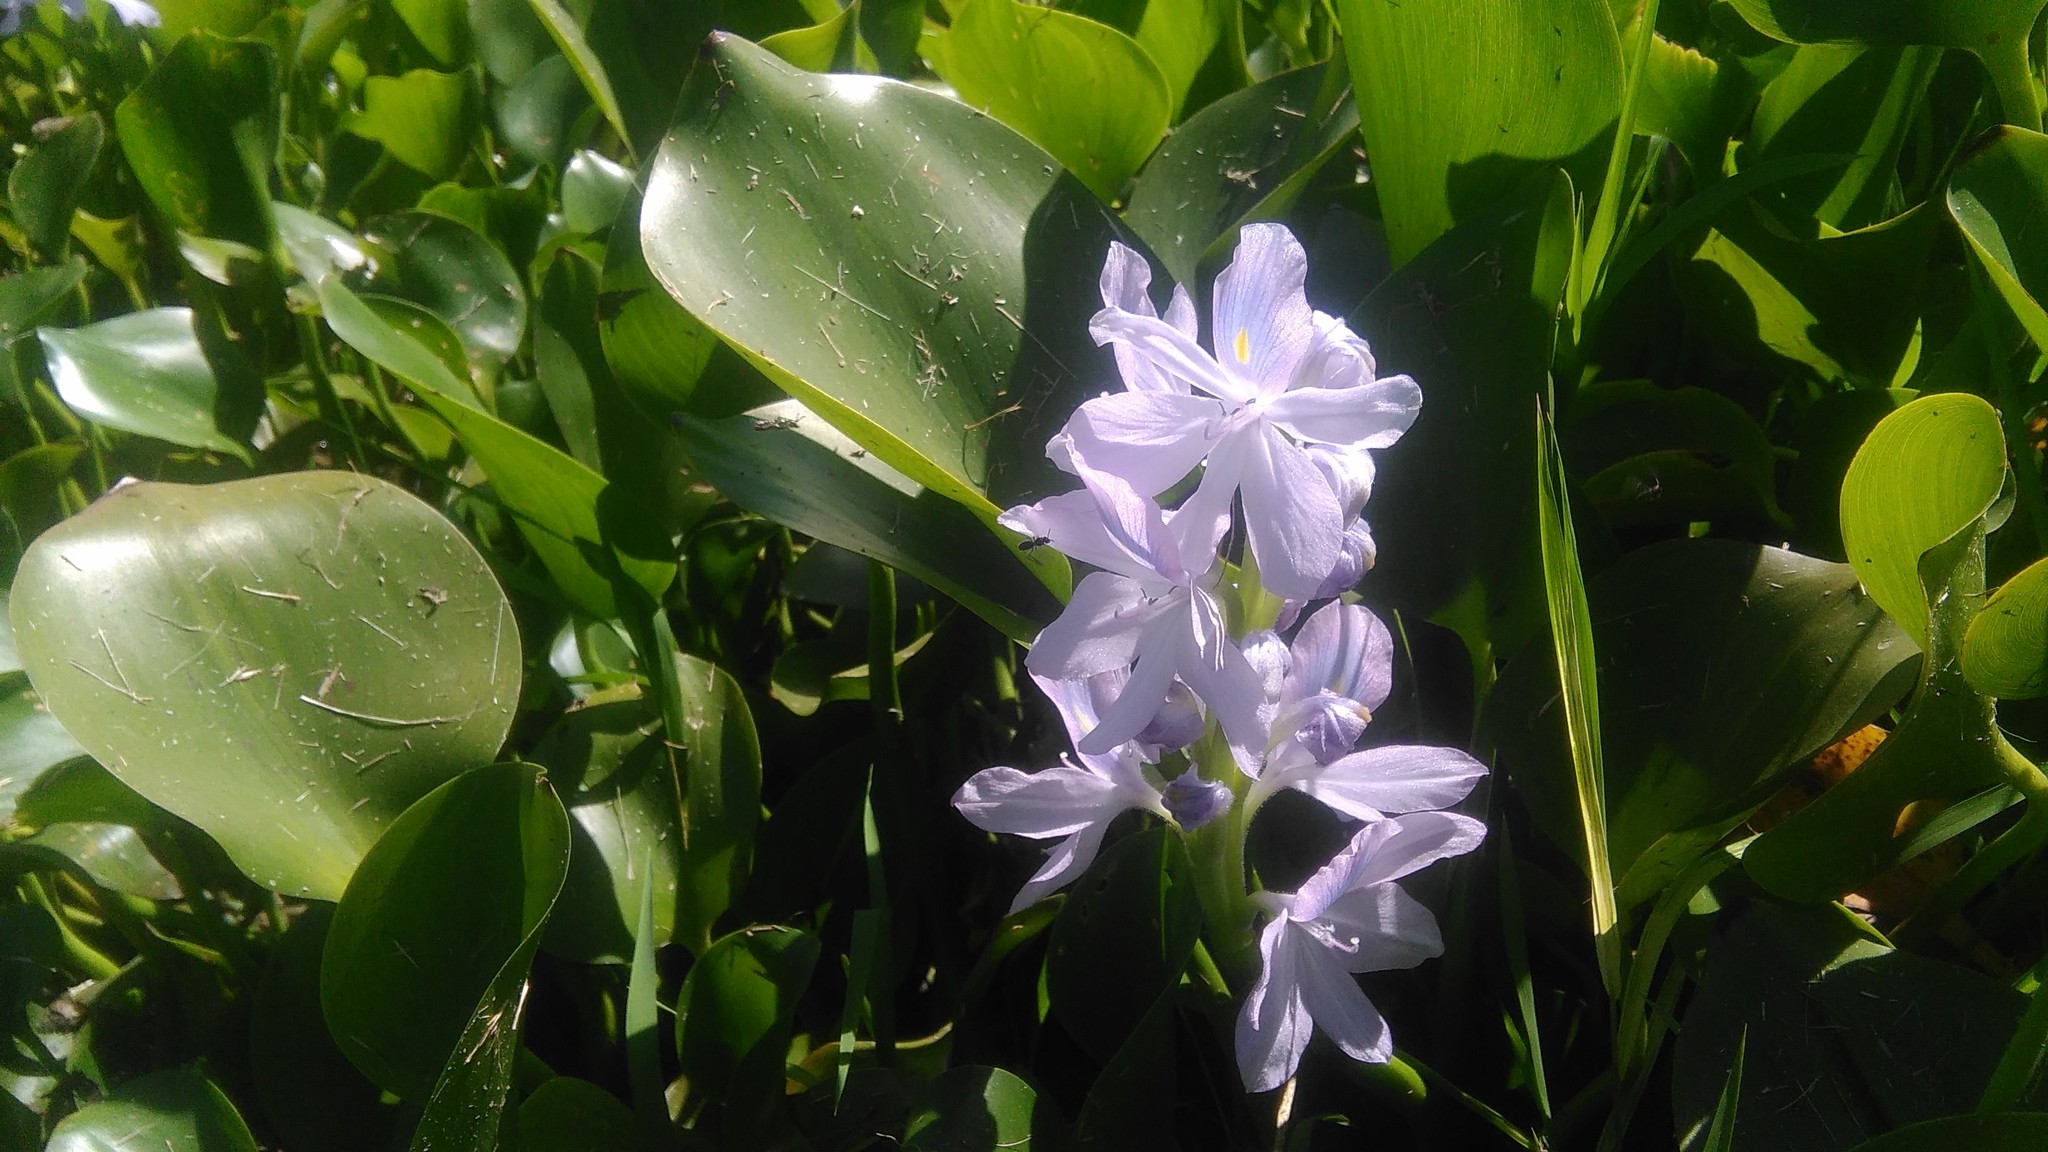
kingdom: Plantae
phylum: Tracheophyta
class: Liliopsida
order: Commelinales
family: Pontederiaceae
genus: Pontederia
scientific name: Pontederia crassipes
